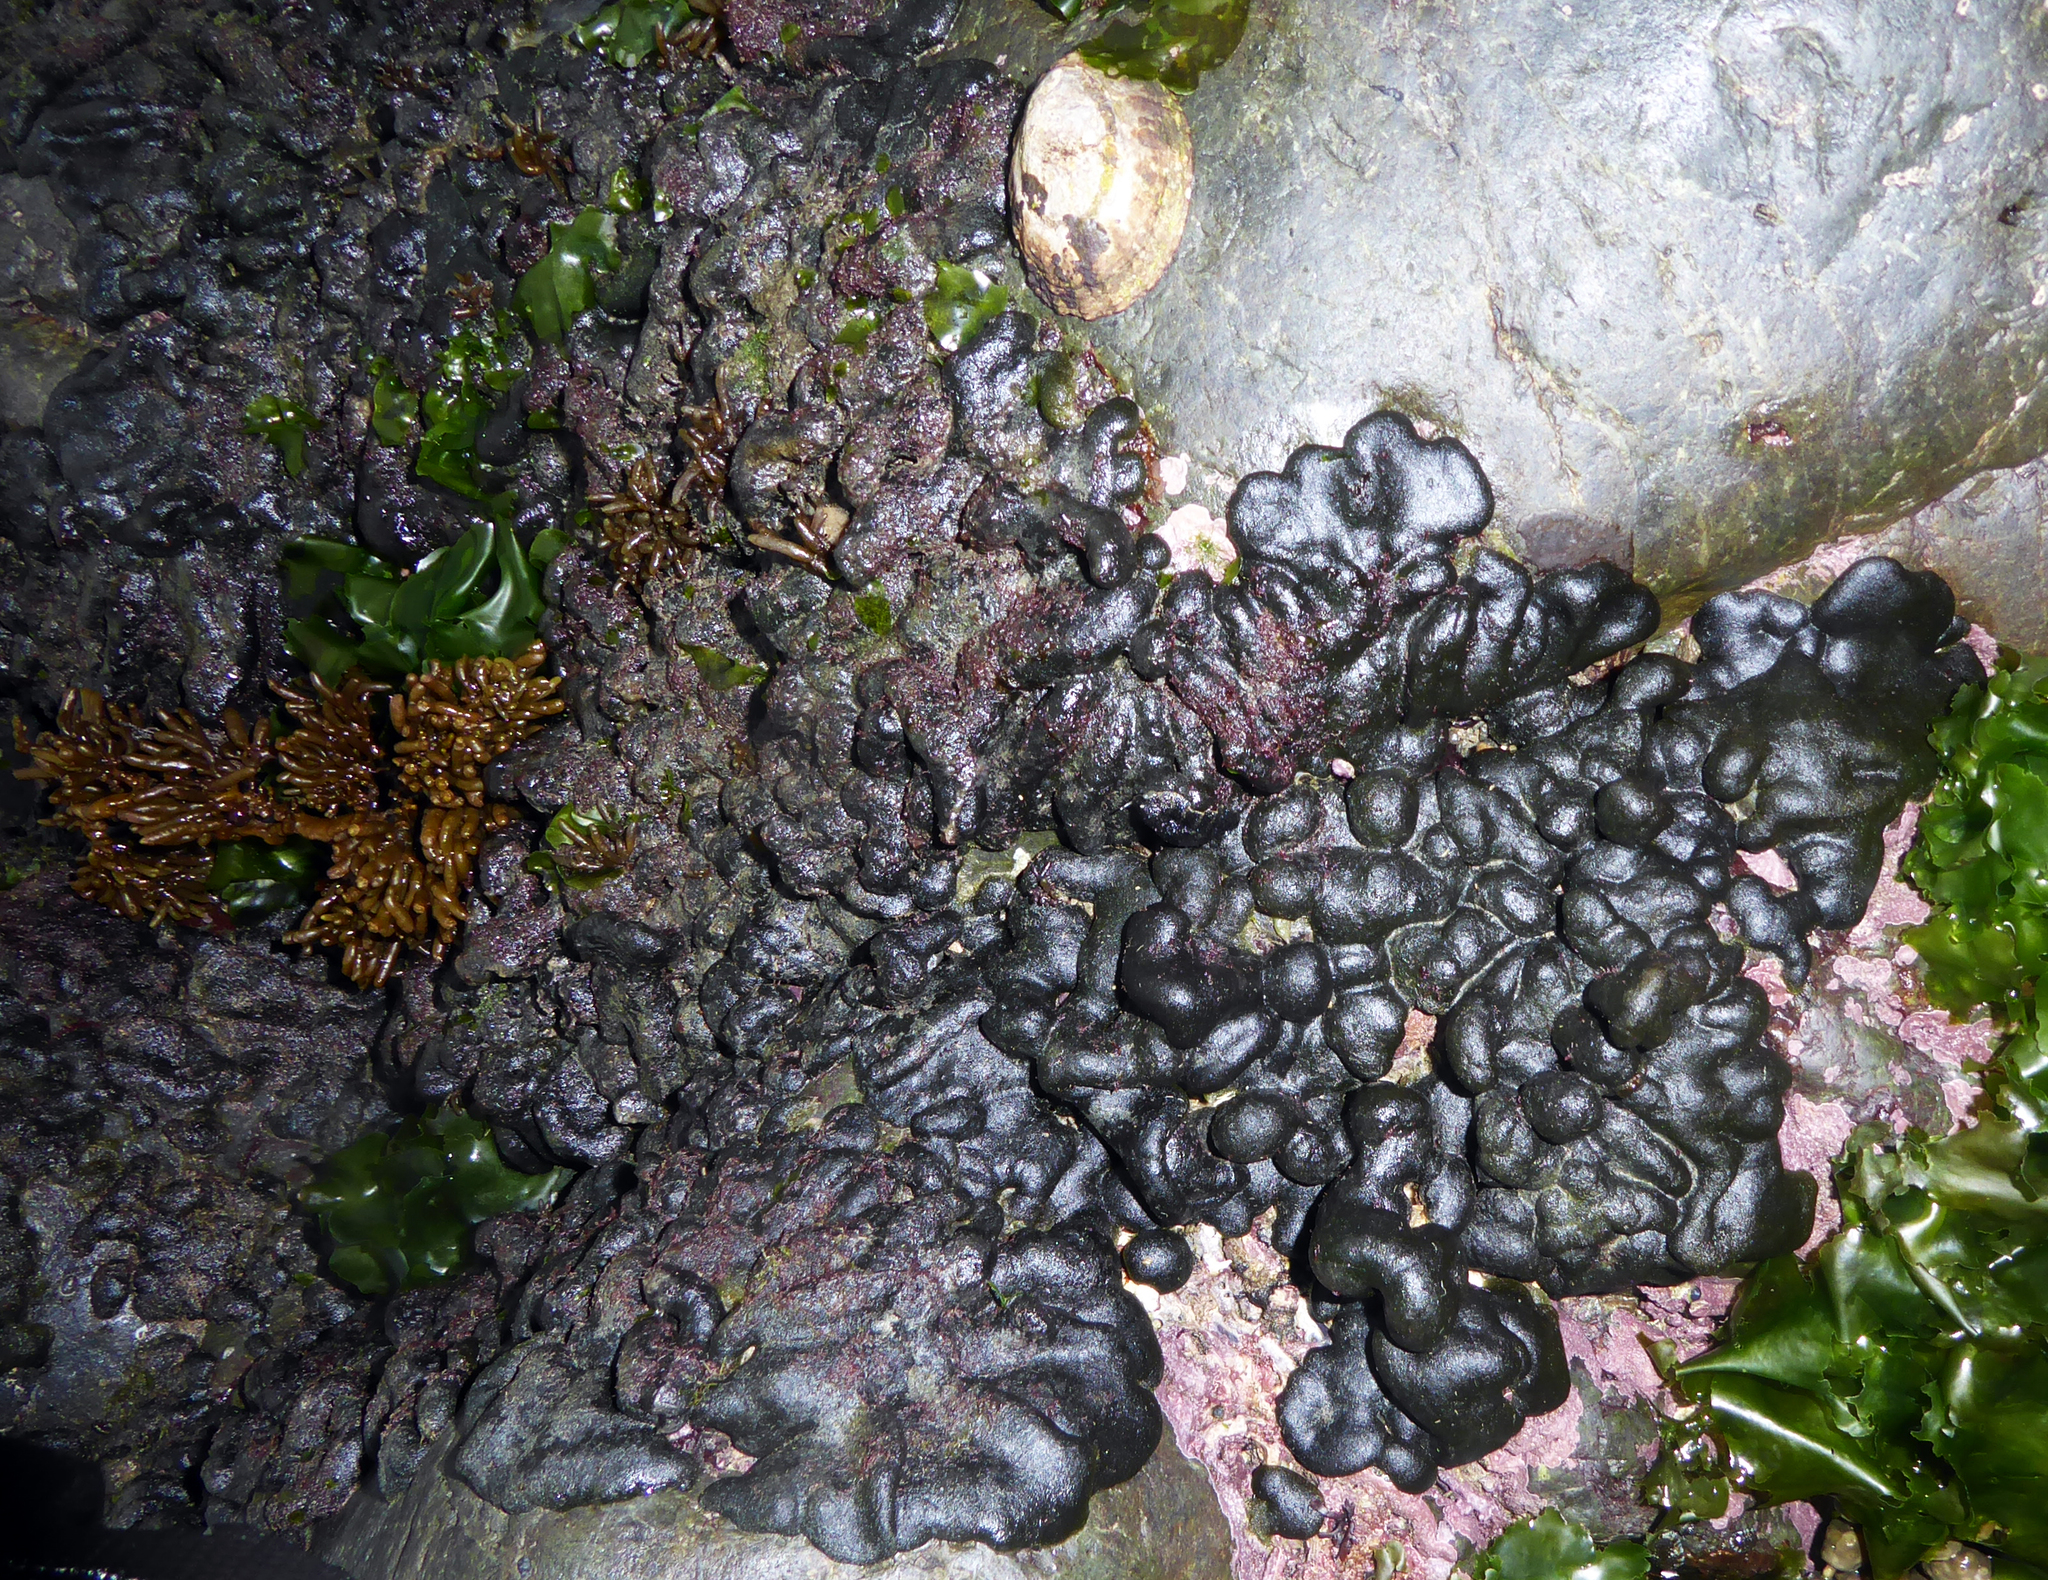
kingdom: Plantae
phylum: Chlorophyta
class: Ulvophyceae
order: Bryopsidales
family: Codiaceae
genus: Codium
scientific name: Codium convolutum
